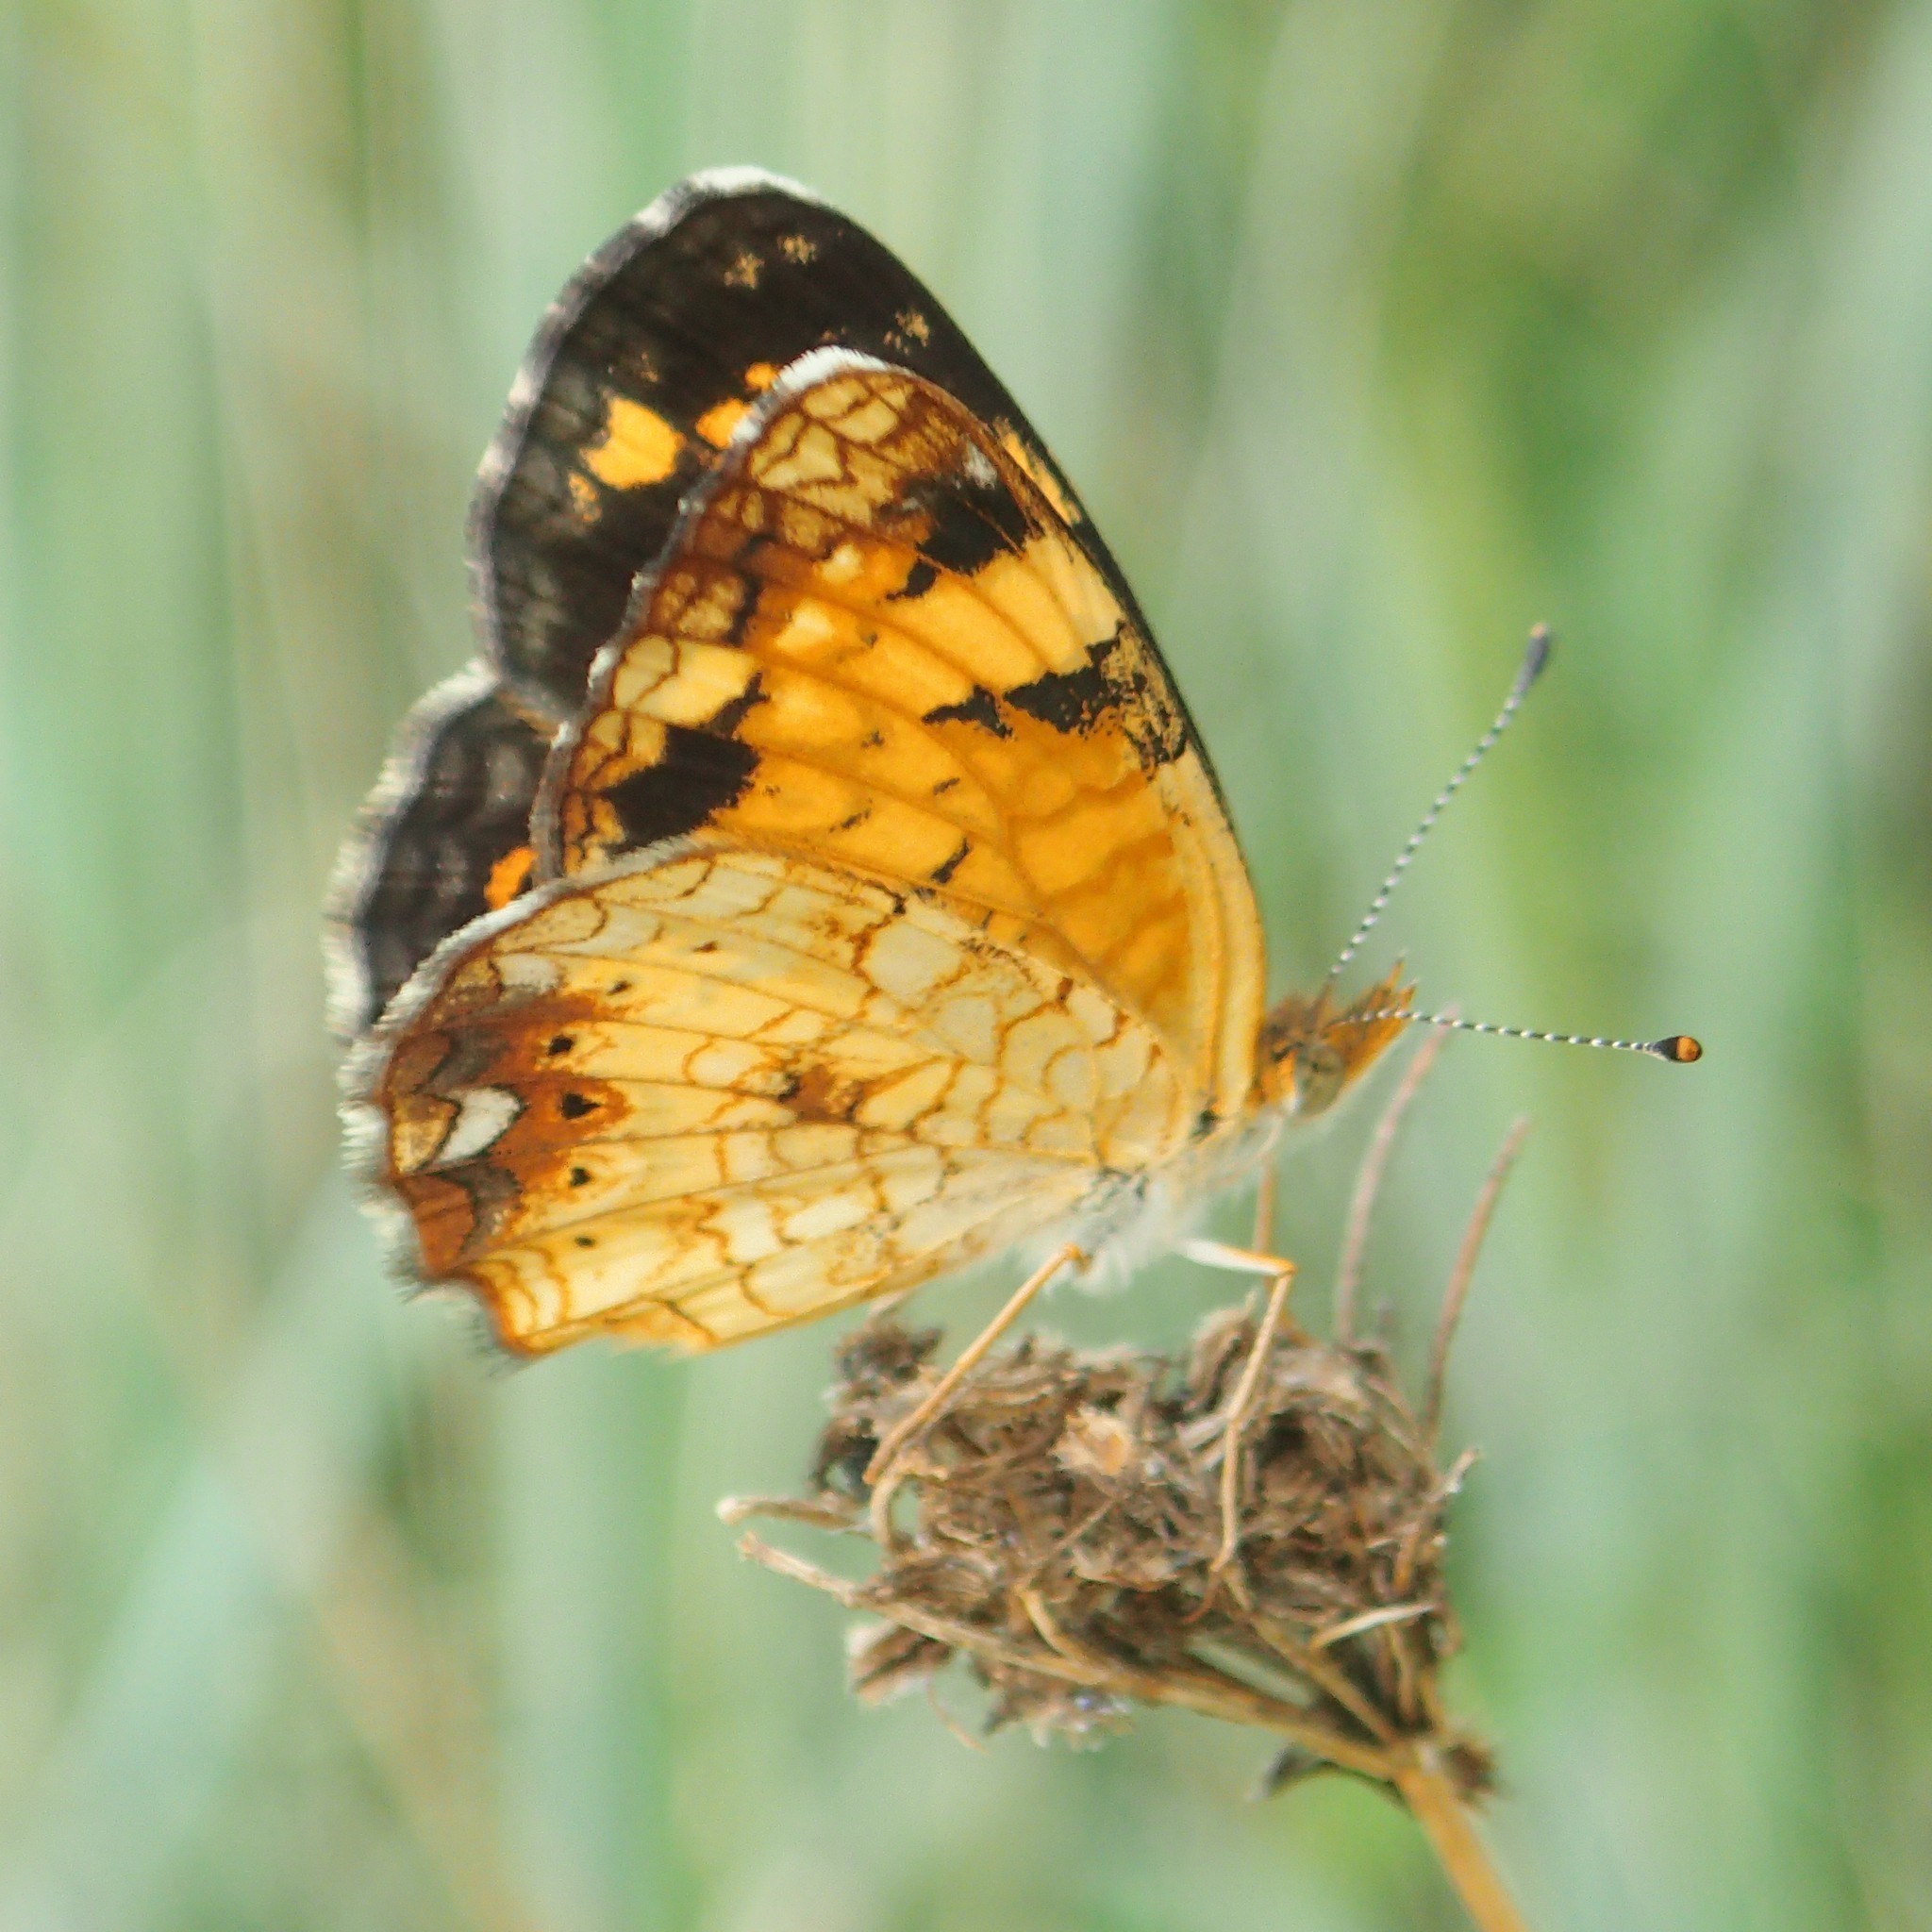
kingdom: Animalia
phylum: Arthropoda
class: Insecta
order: Lepidoptera
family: Nymphalidae
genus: Phyciodes
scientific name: Phyciodes tharos
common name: Pearl crescent
